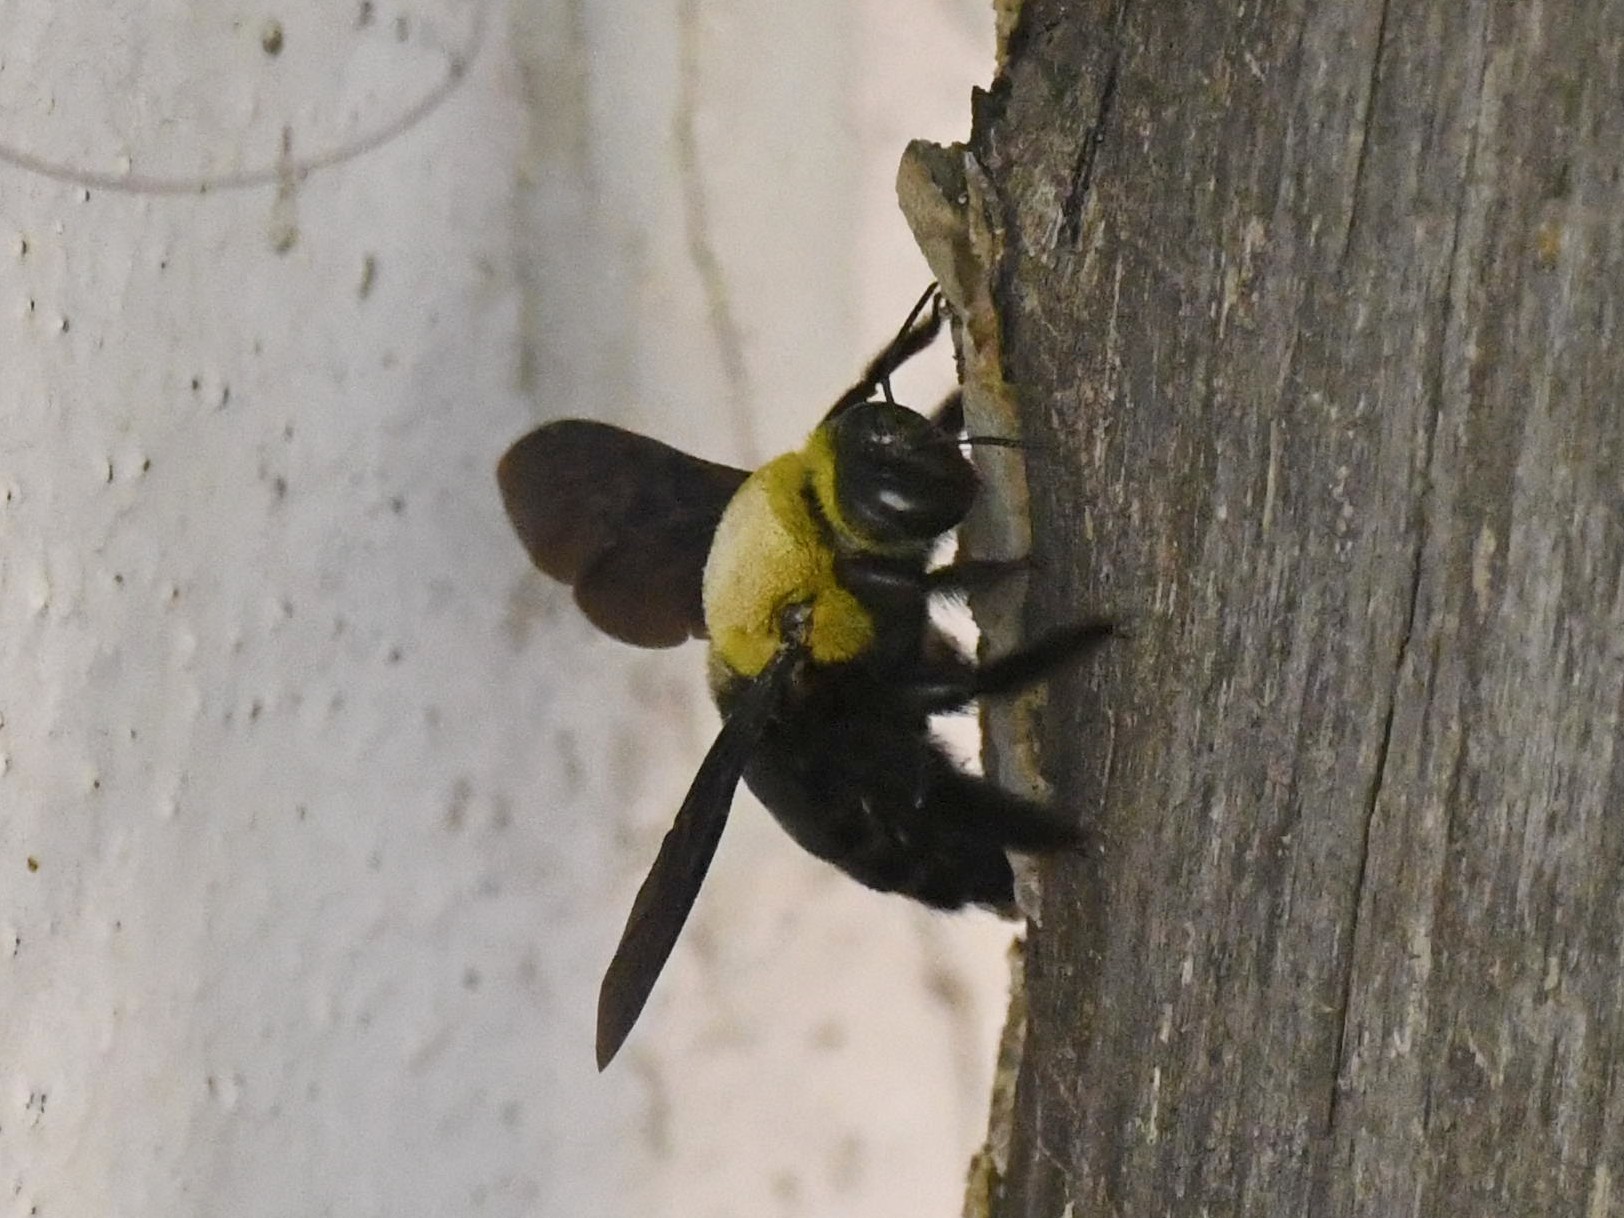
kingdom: Animalia
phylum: Arthropoda
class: Insecta
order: Hymenoptera
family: Apidae
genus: Xylocopa
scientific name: Xylocopa ruficornis
